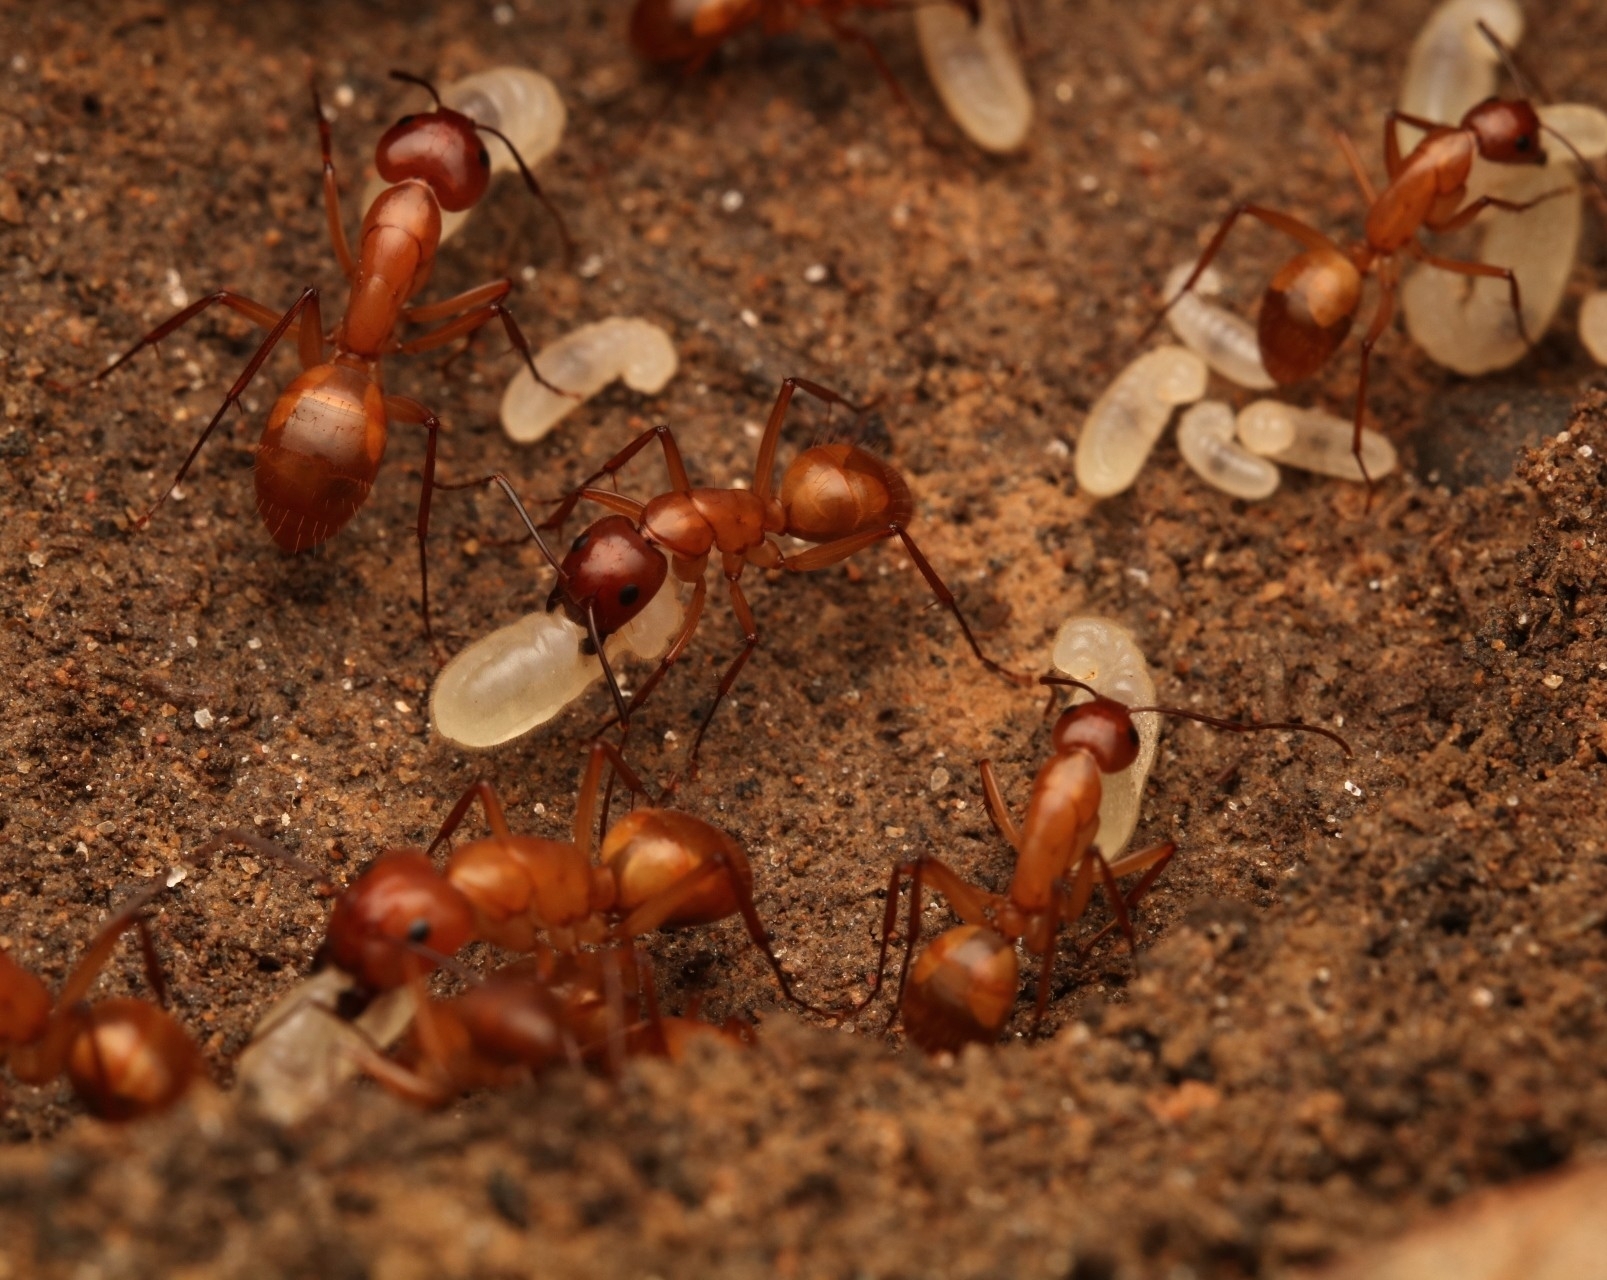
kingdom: Animalia
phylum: Arthropoda
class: Insecta
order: Hymenoptera
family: Formicidae
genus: Camponotus
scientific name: Camponotus castaneus
